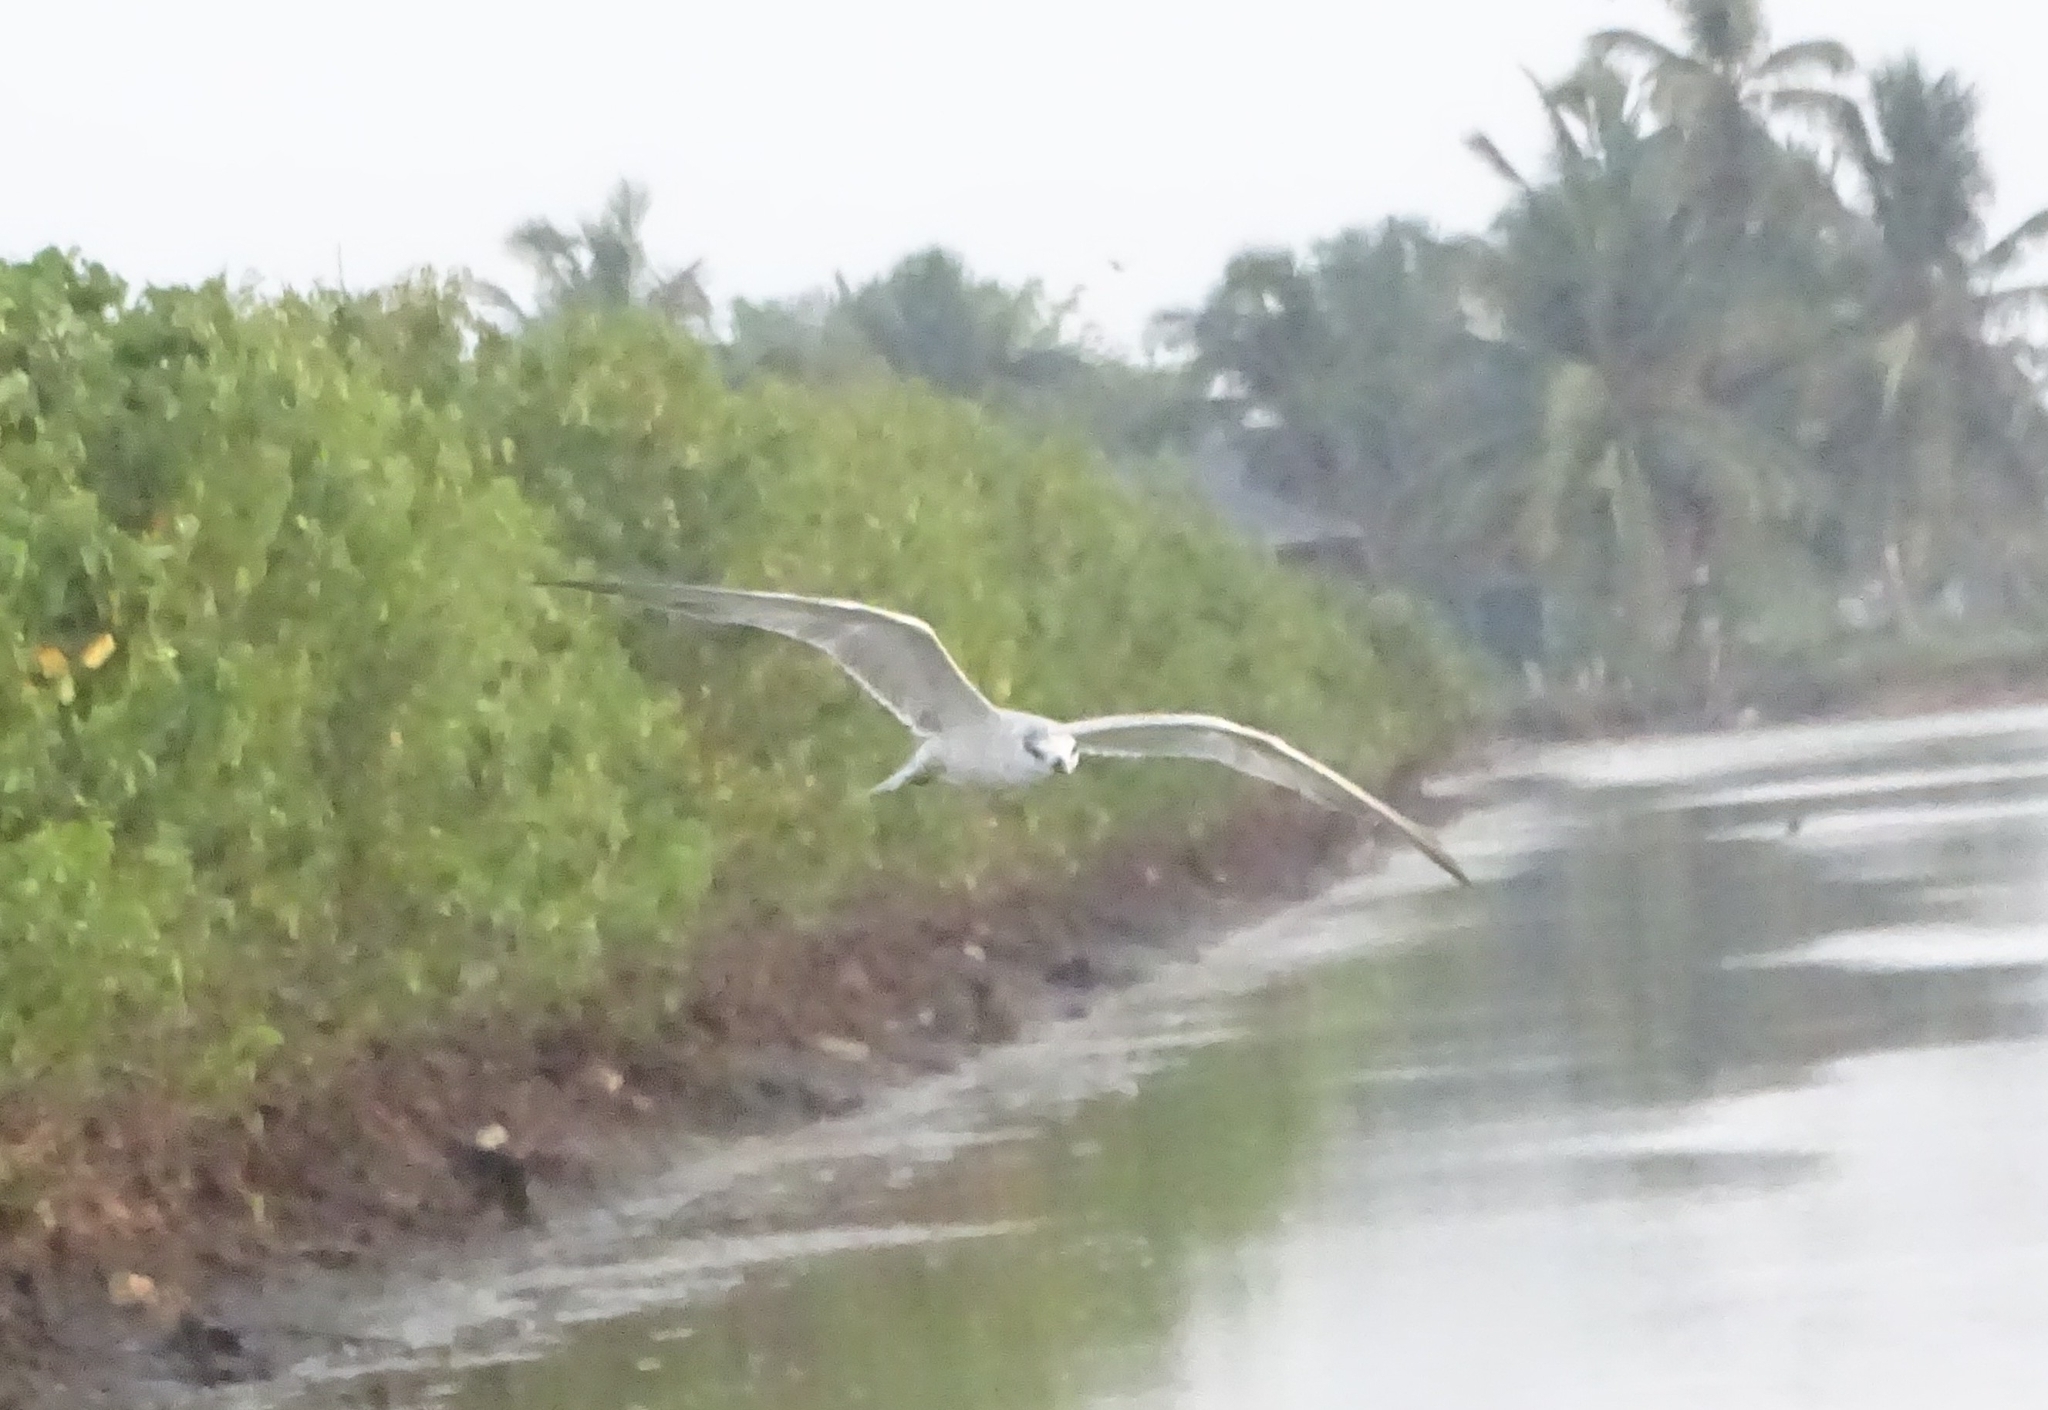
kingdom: Animalia
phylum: Chordata
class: Aves
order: Charadriiformes
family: Laridae
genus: Chlidonias
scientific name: Chlidonias hybrida
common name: Whiskered tern
